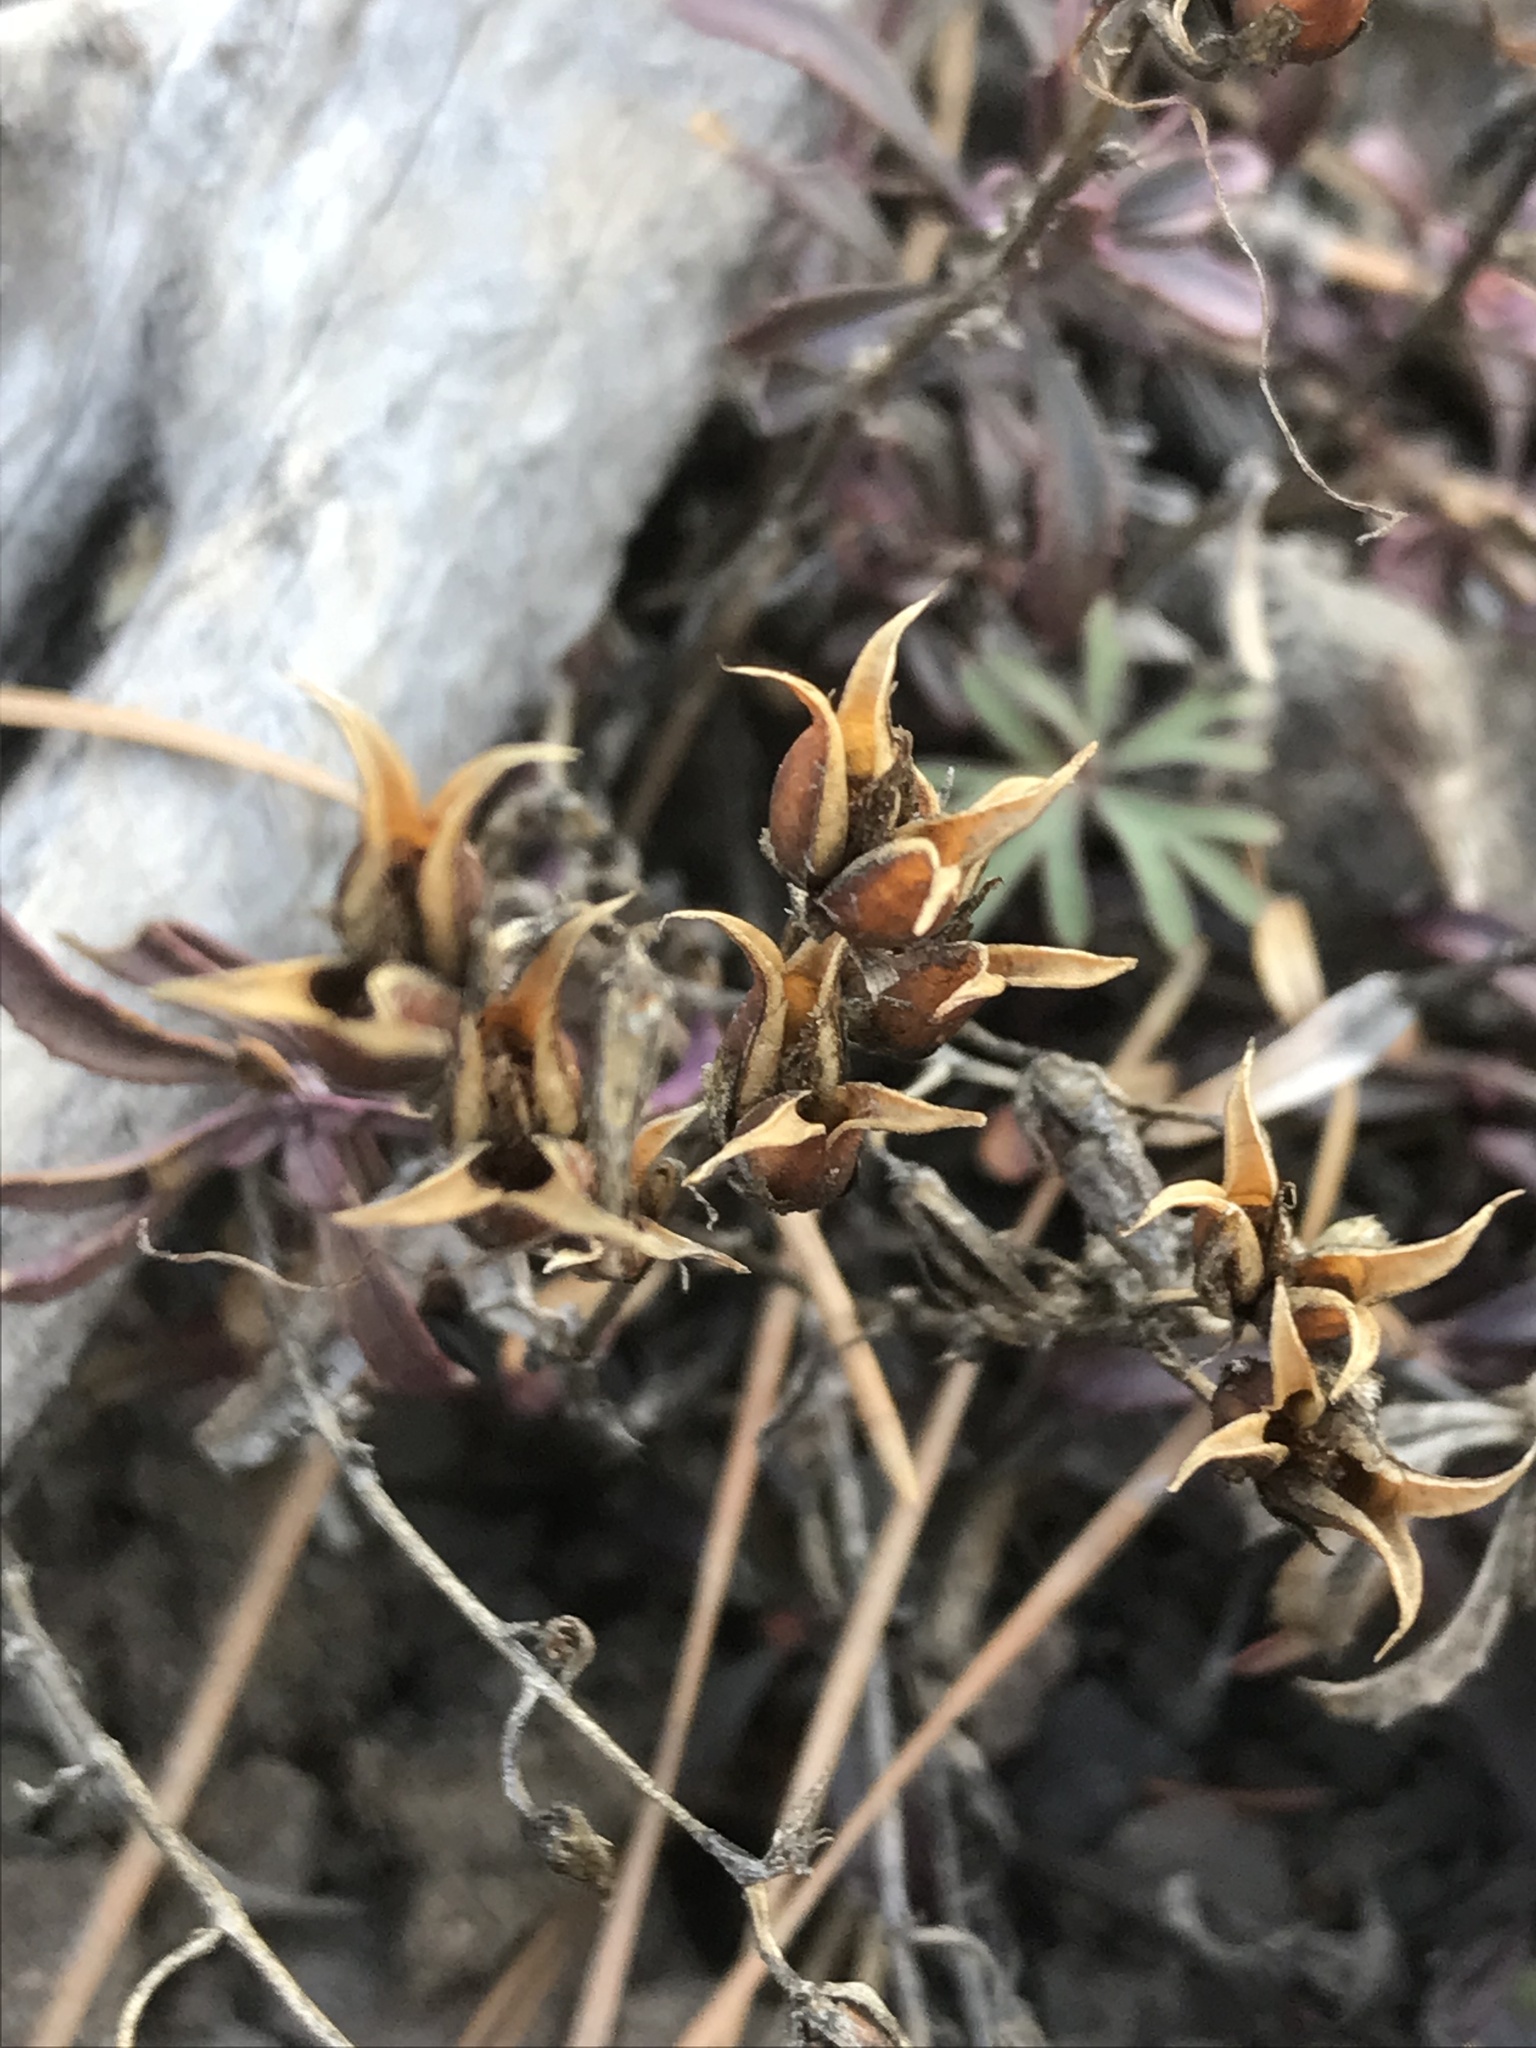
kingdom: Plantae
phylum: Tracheophyta
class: Magnoliopsida
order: Lamiales
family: Plantaginaceae
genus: Penstemon
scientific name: Penstemon fruticosus
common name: Bush penstemon
